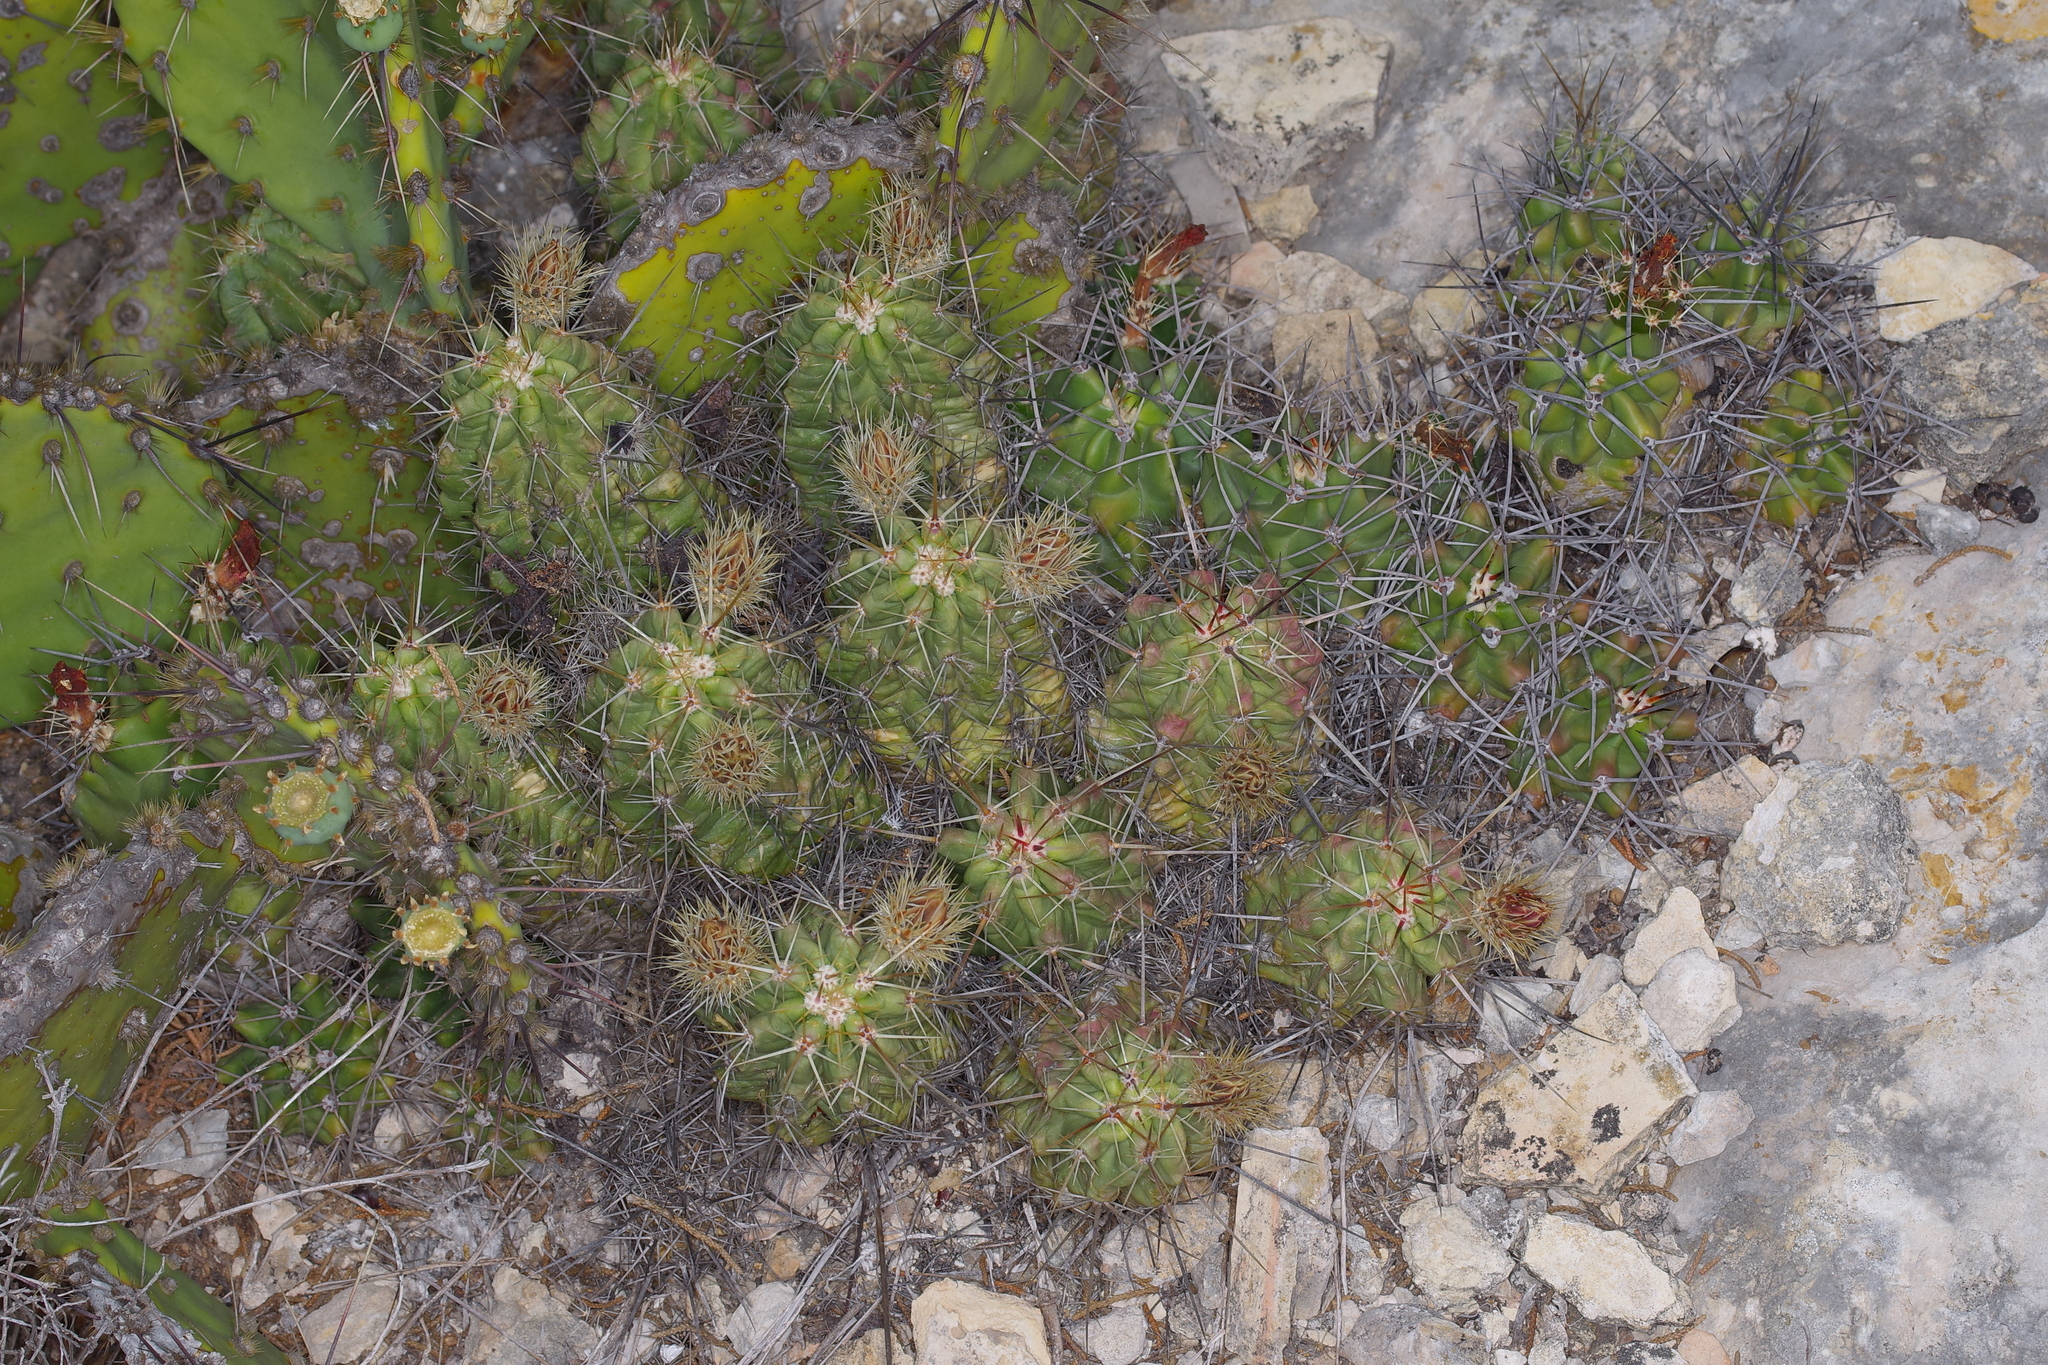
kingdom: Plantae
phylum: Tracheophyta
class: Magnoliopsida
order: Caryophyllales
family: Cactaceae
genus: Echinocereus
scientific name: Echinocereus enneacanthus
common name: Pitaya
